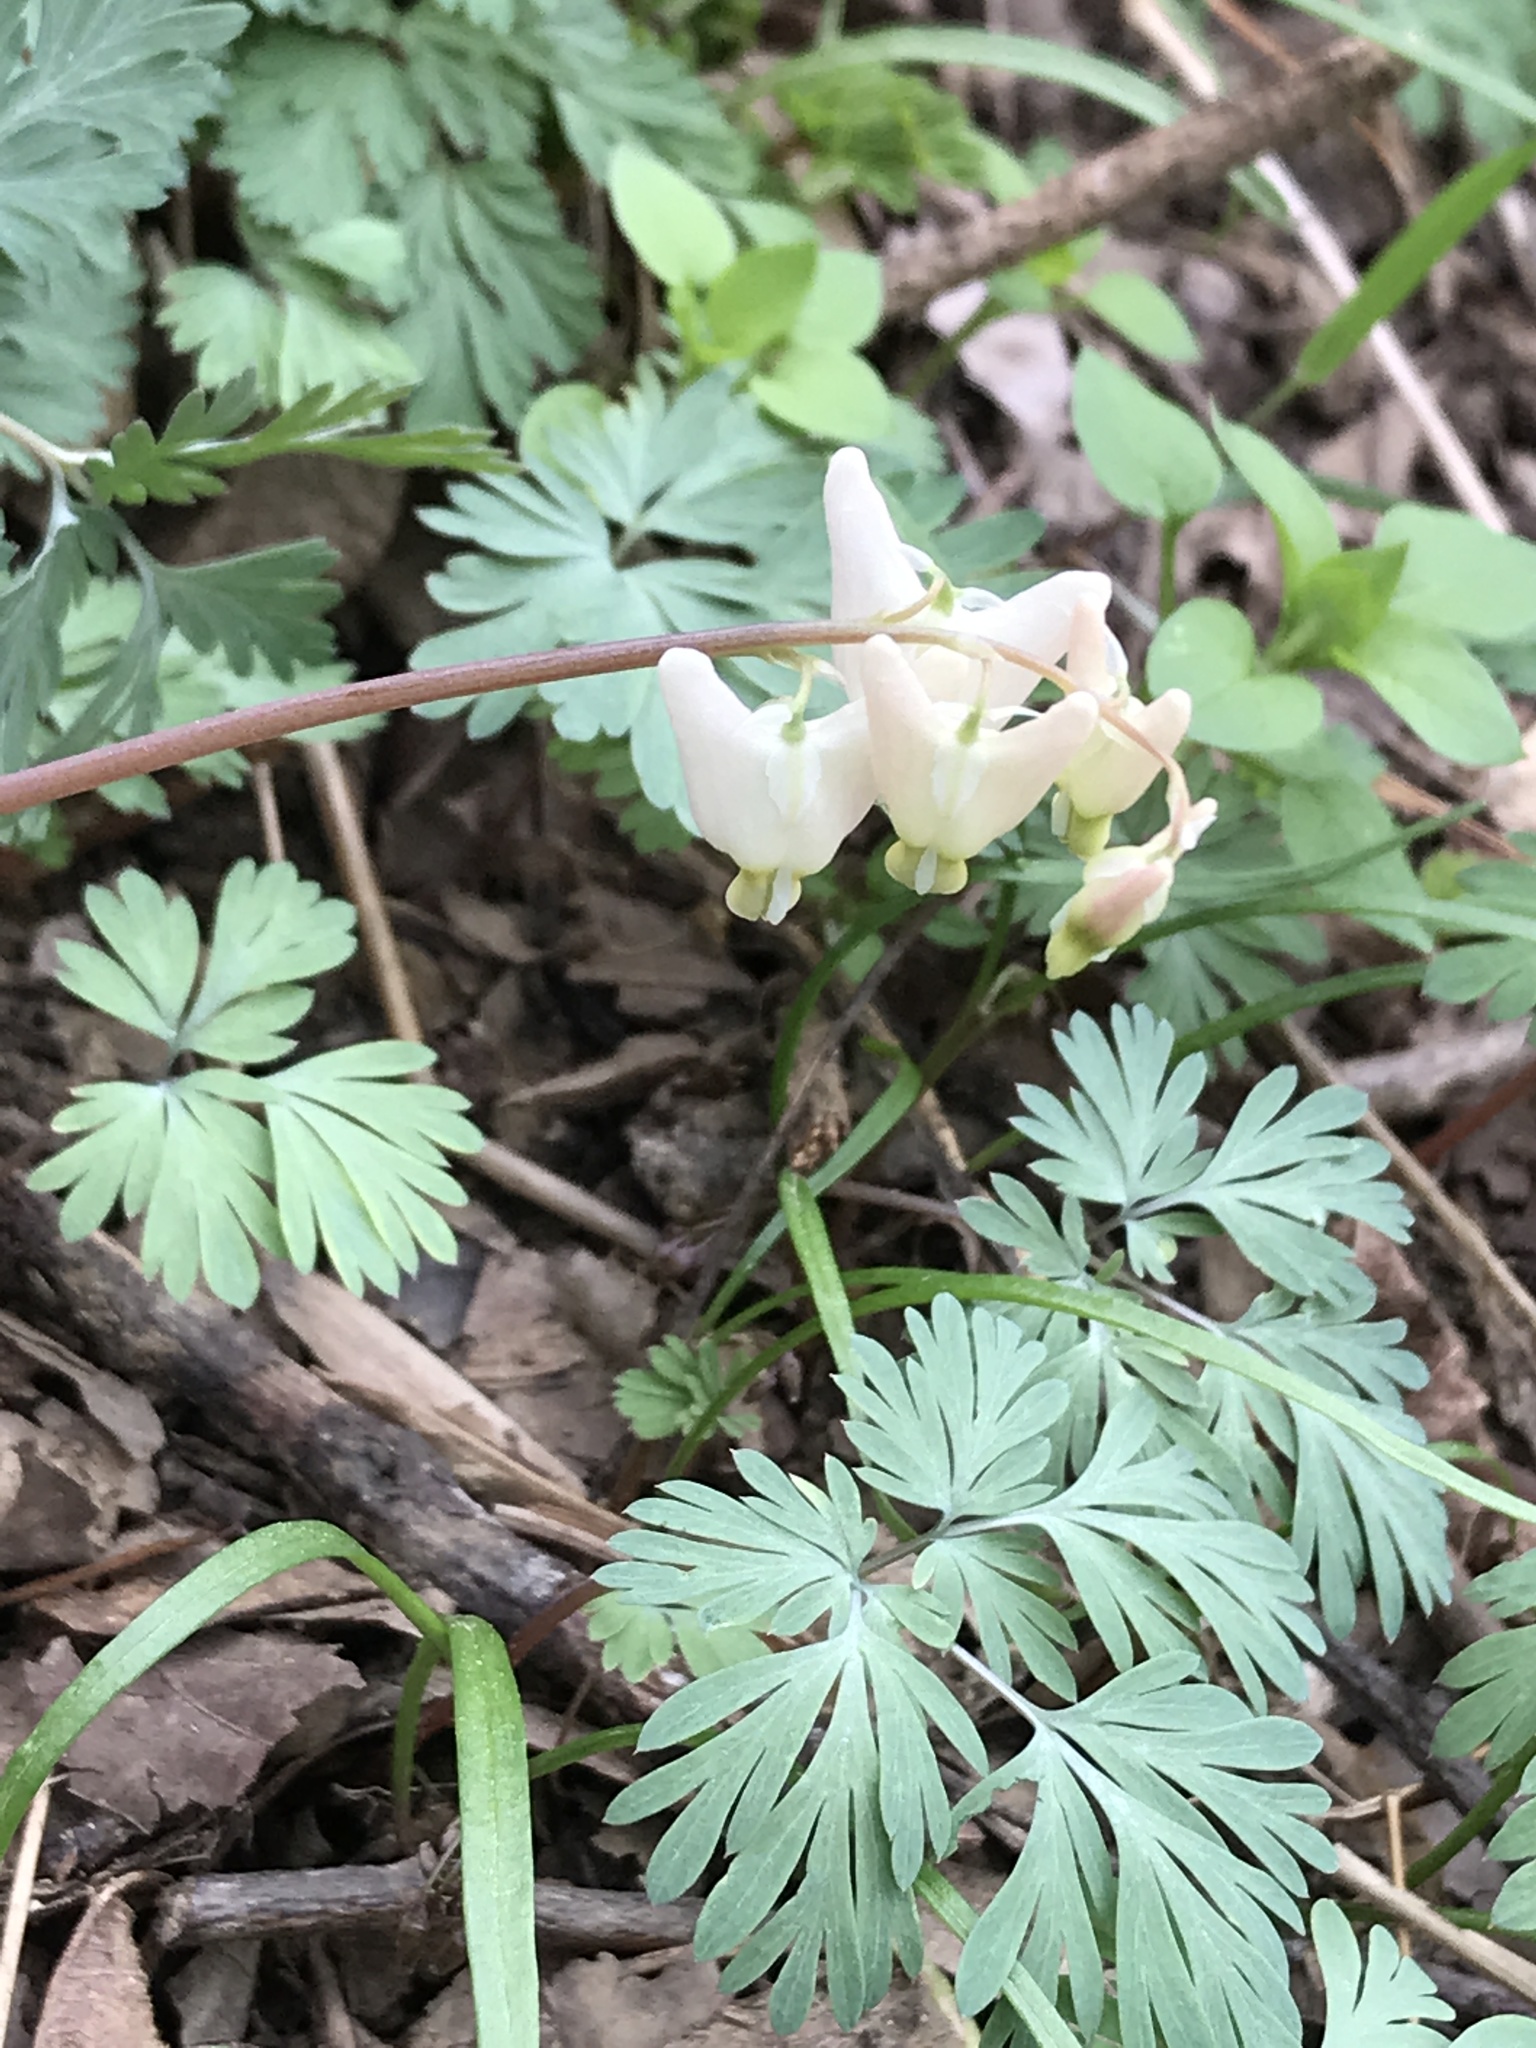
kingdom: Plantae
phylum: Tracheophyta
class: Magnoliopsida
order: Ranunculales
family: Papaveraceae
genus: Dicentra
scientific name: Dicentra cucullaria
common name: Dutchman's breeches
